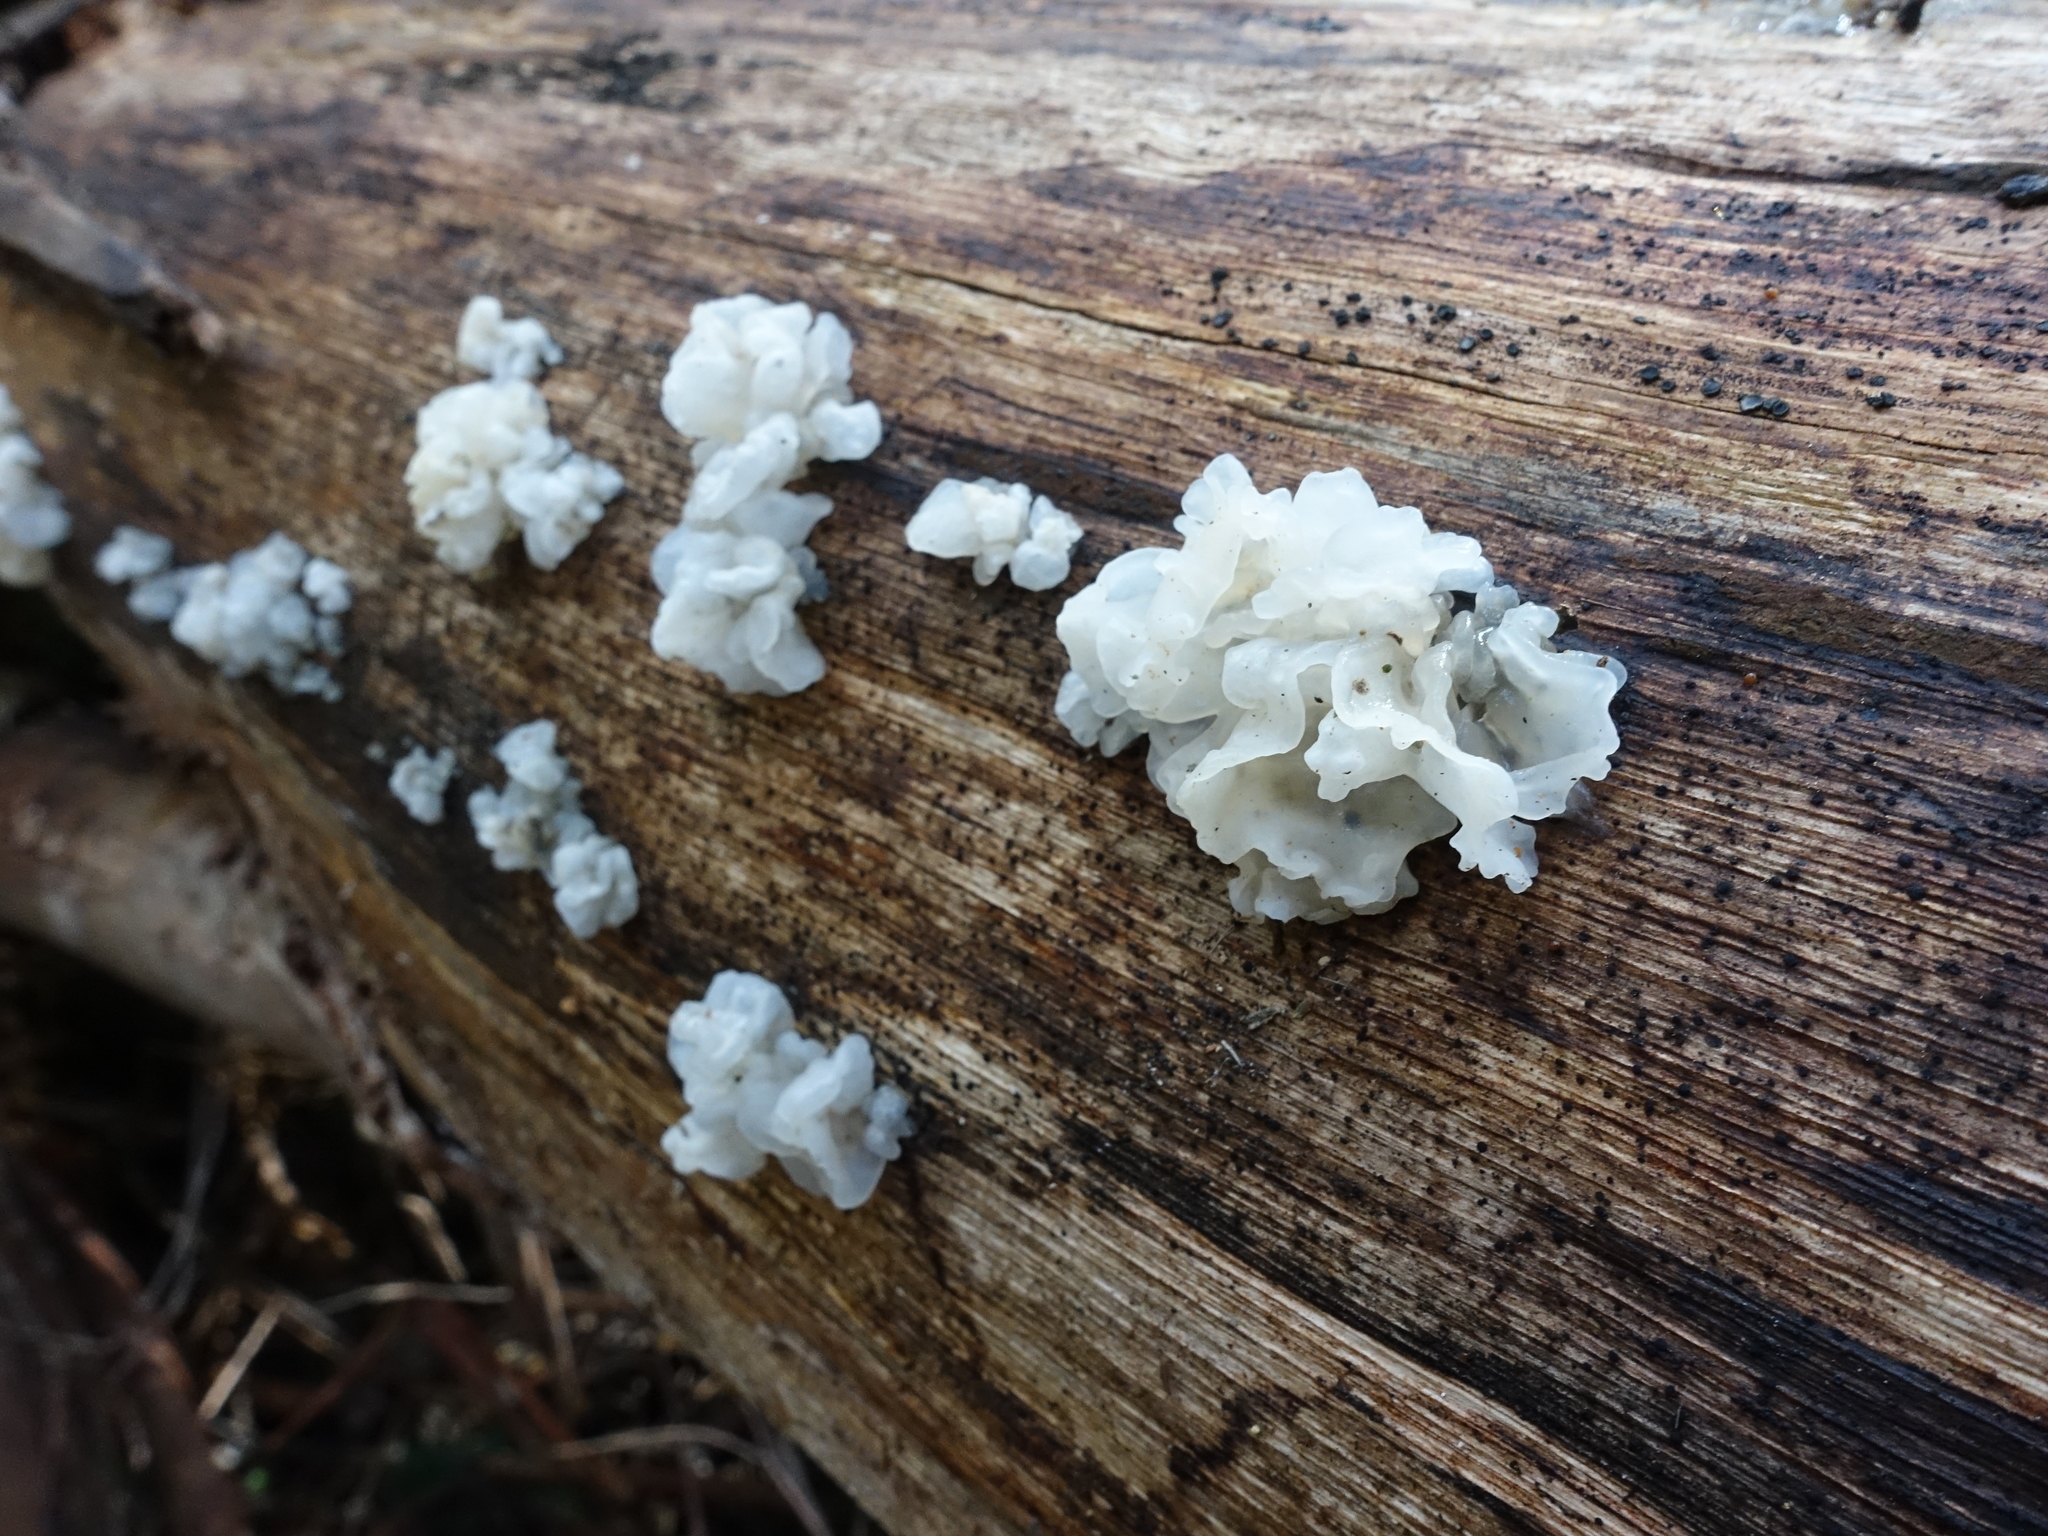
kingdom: Fungi
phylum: Basidiomycota
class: Tremellomycetes
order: Tremellales
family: Tremellaceae
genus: Tremella
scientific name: Tremella fuciformis
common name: Snow fungus
